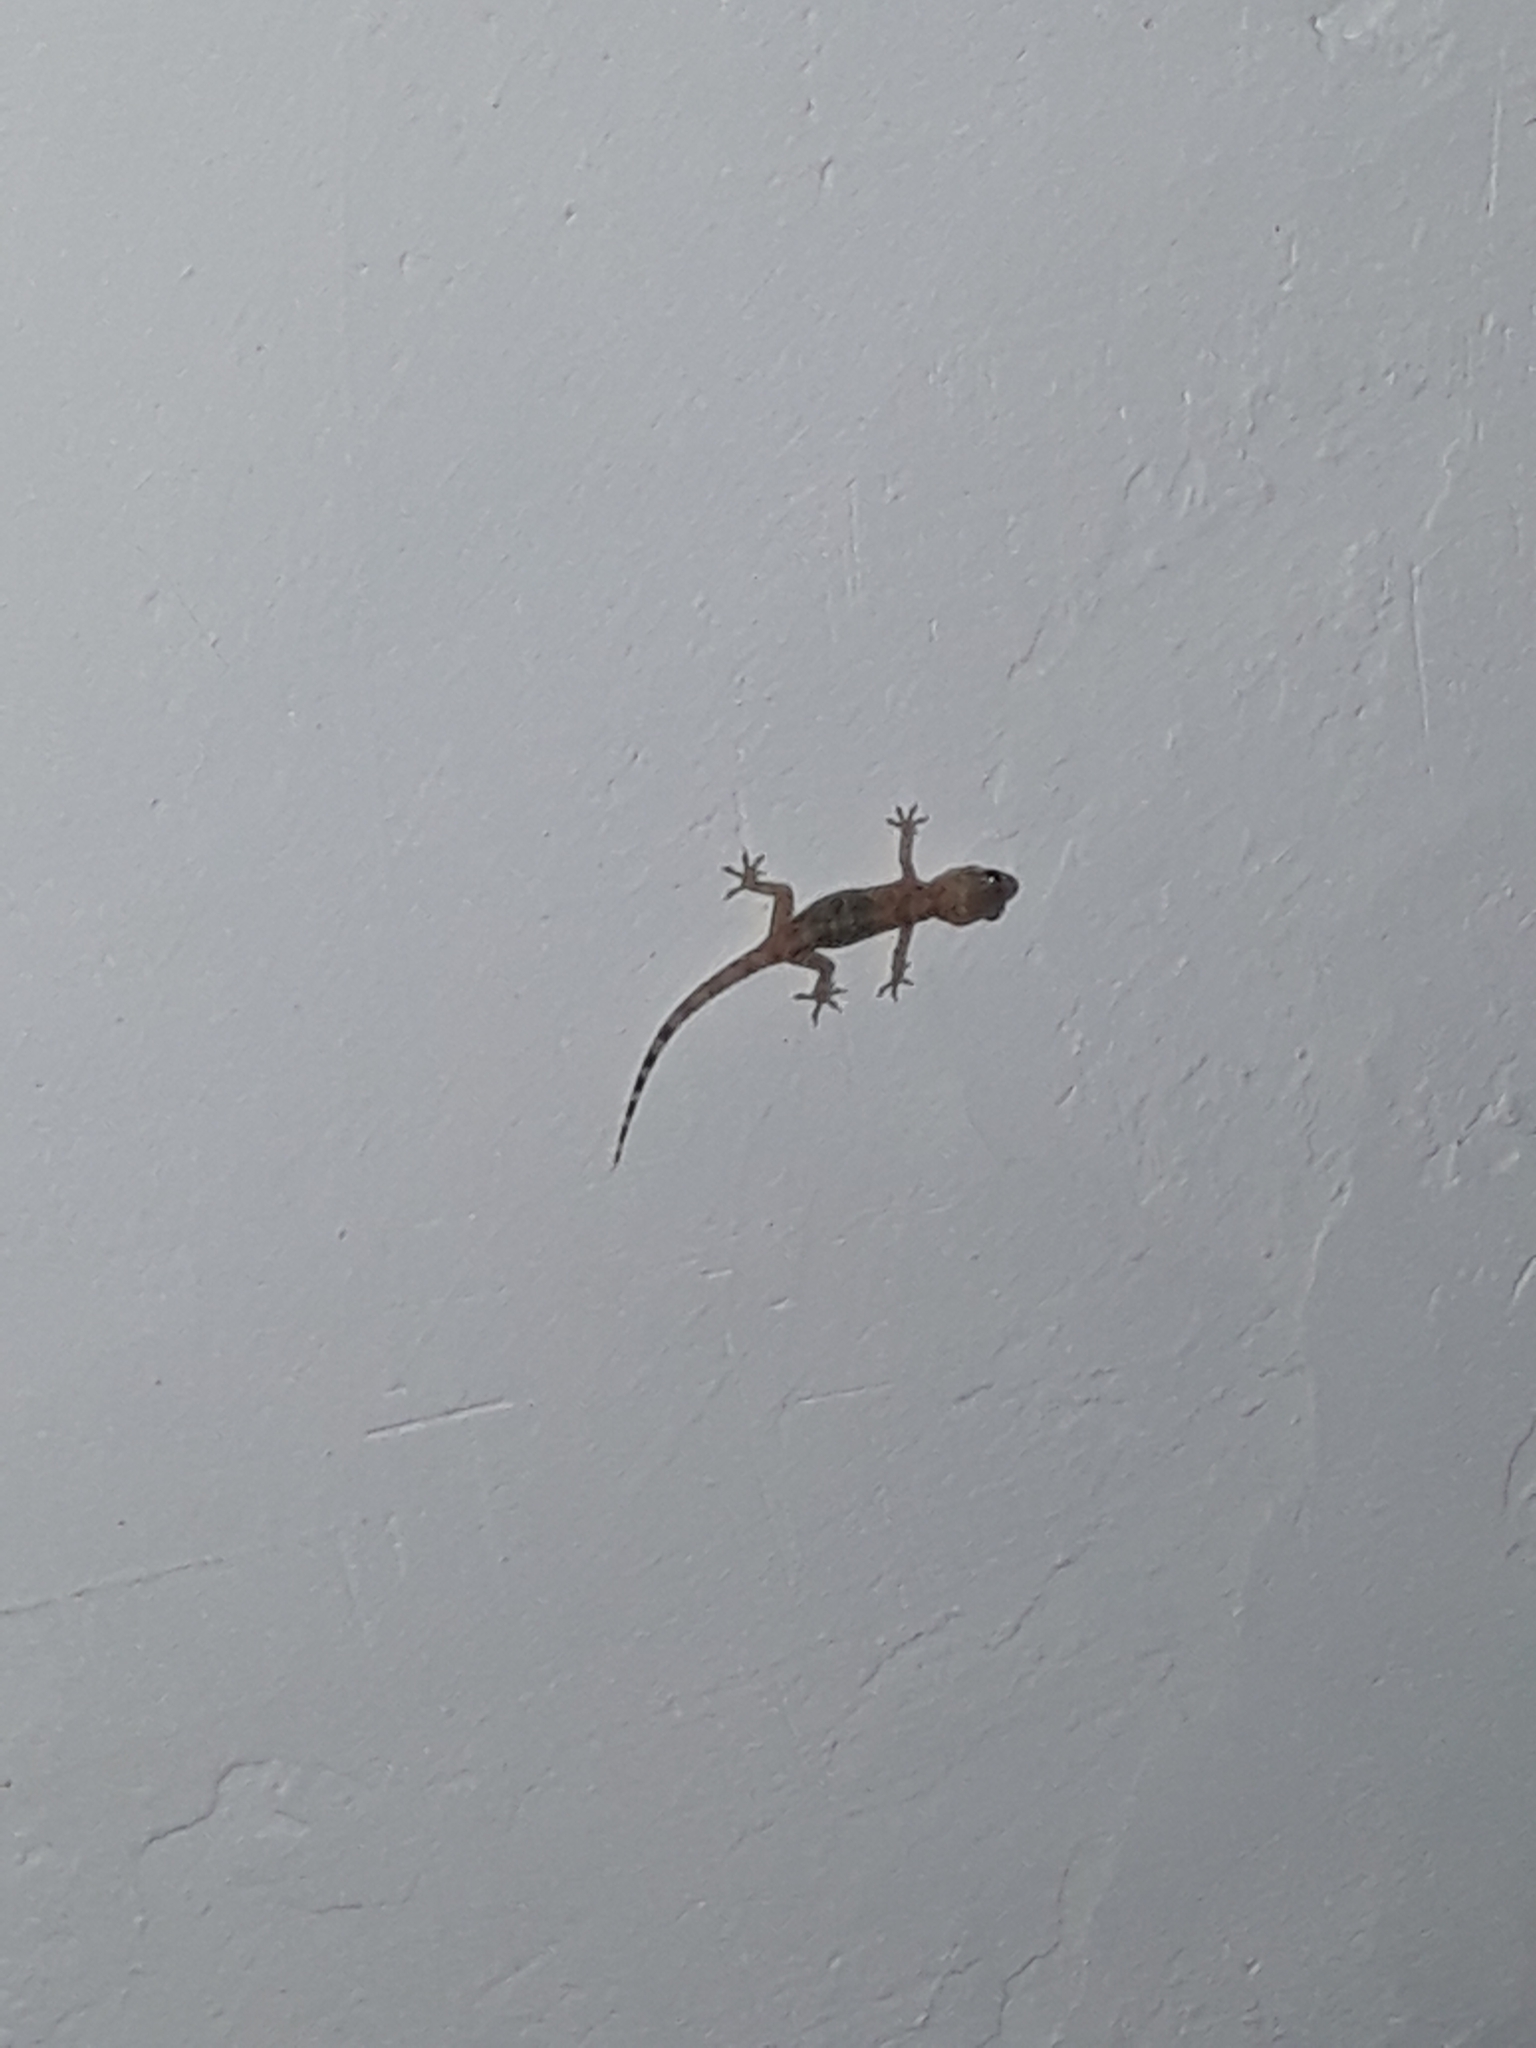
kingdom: Animalia
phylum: Chordata
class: Squamata
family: Gekkonidae
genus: Hemidactylus
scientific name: Hemidactylus turcicus
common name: Turkish gecko
